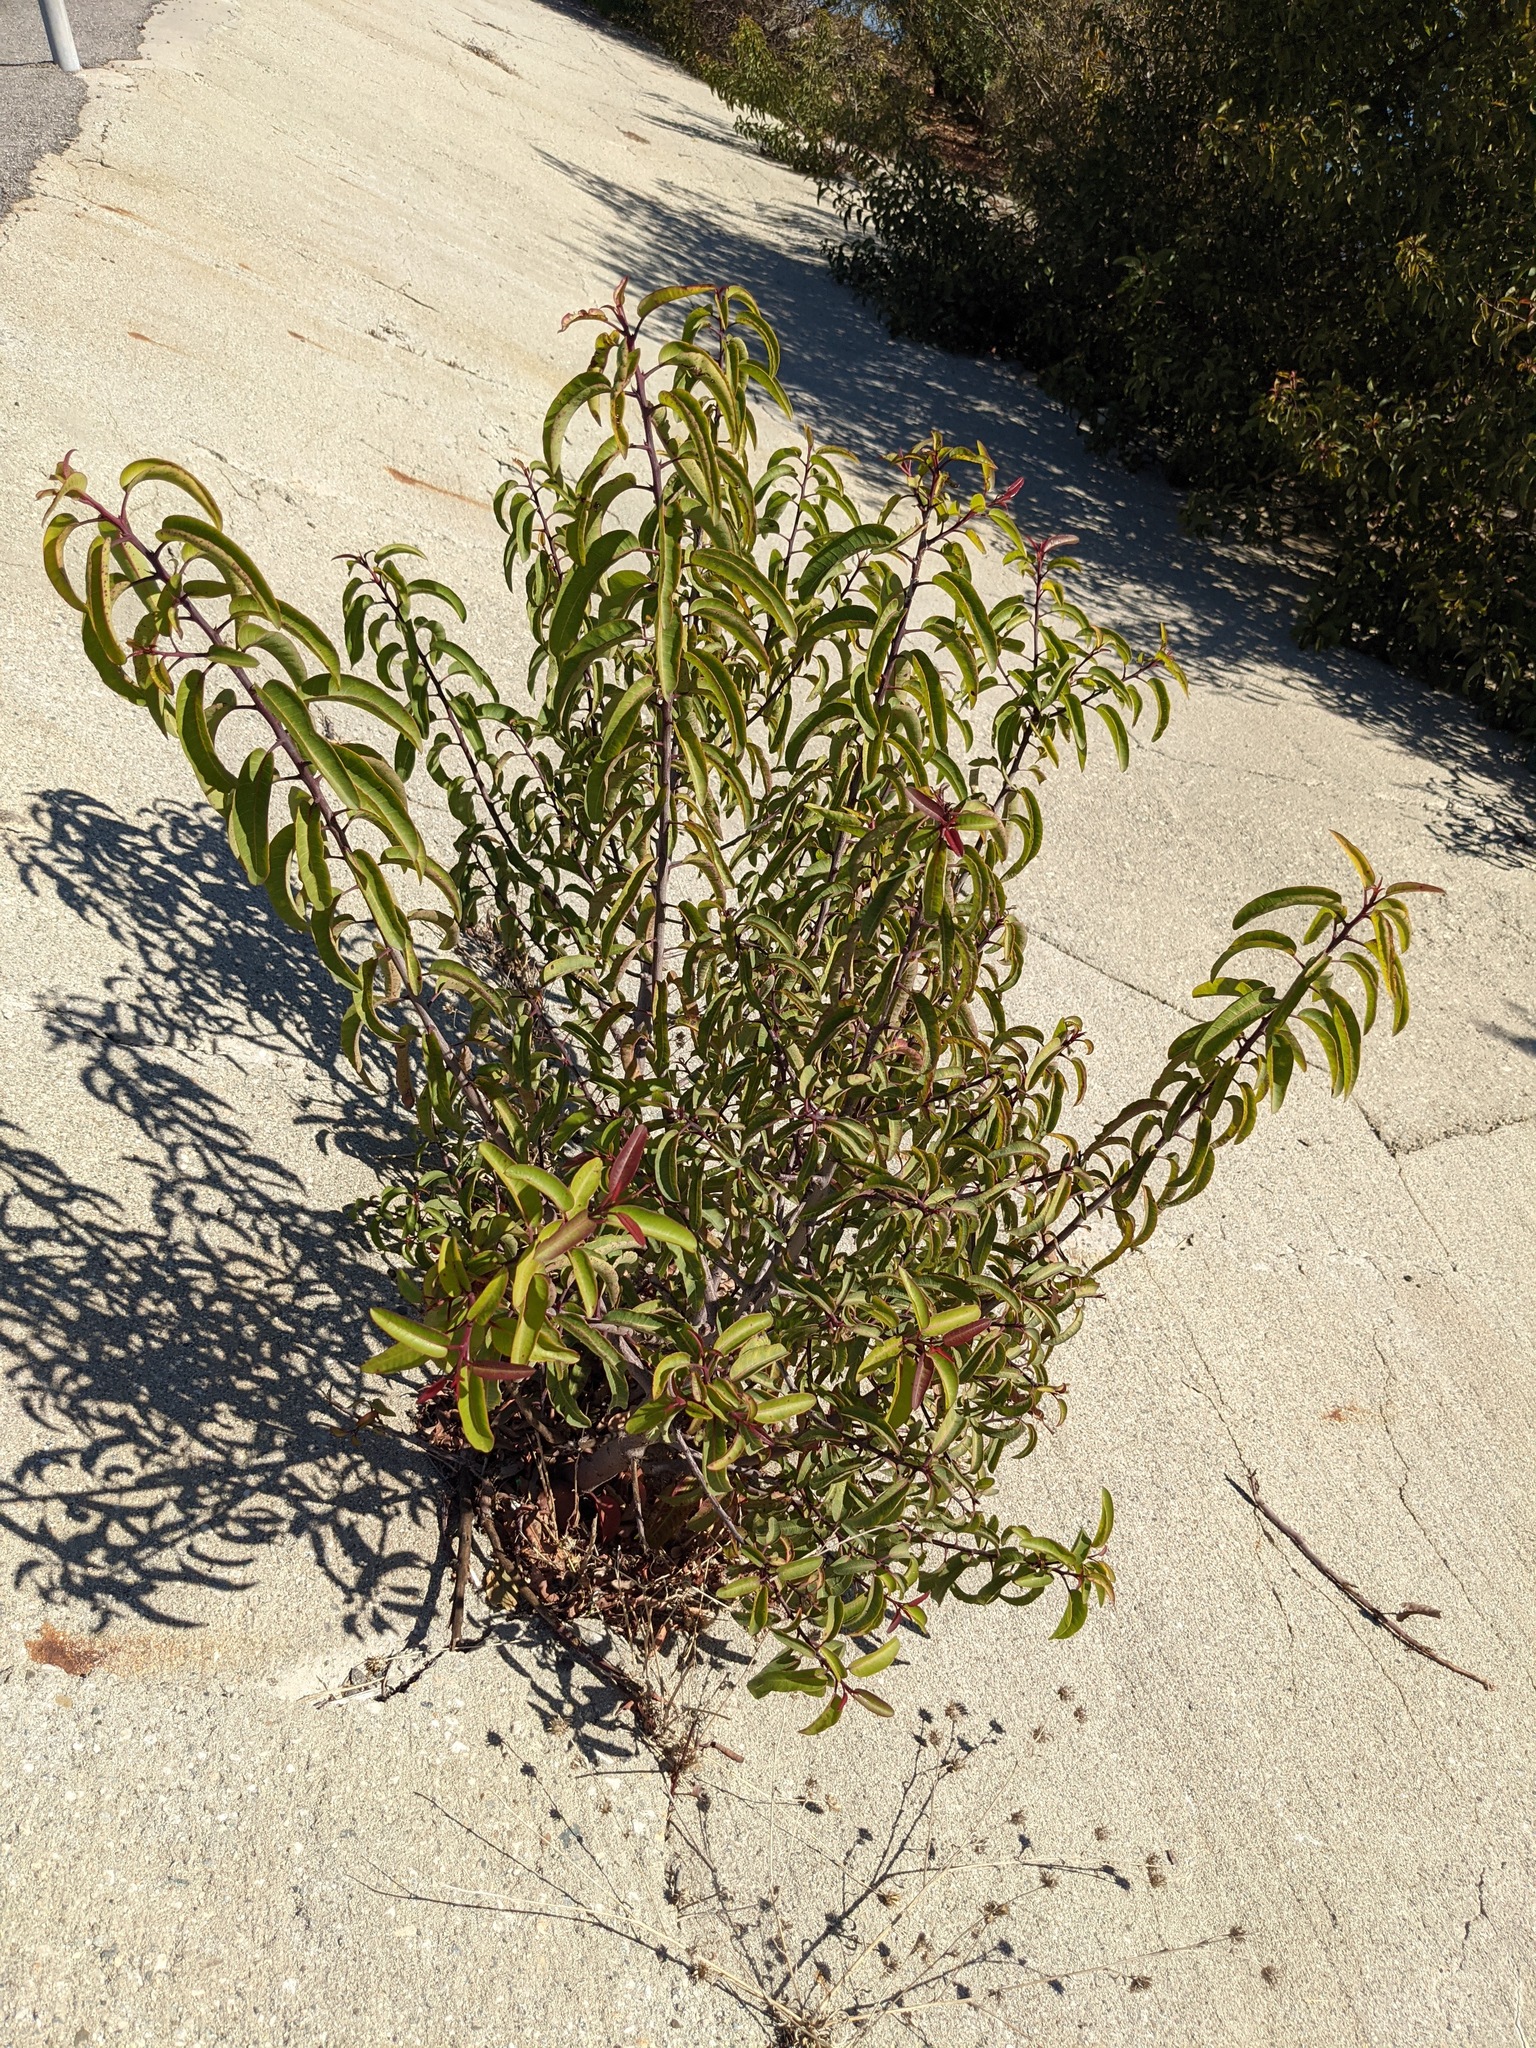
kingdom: Plantae
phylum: Tracheophyta
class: Magnoliopsida
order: Sapindales
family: Anacardiaceae
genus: Malosma
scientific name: Malosma laurina
